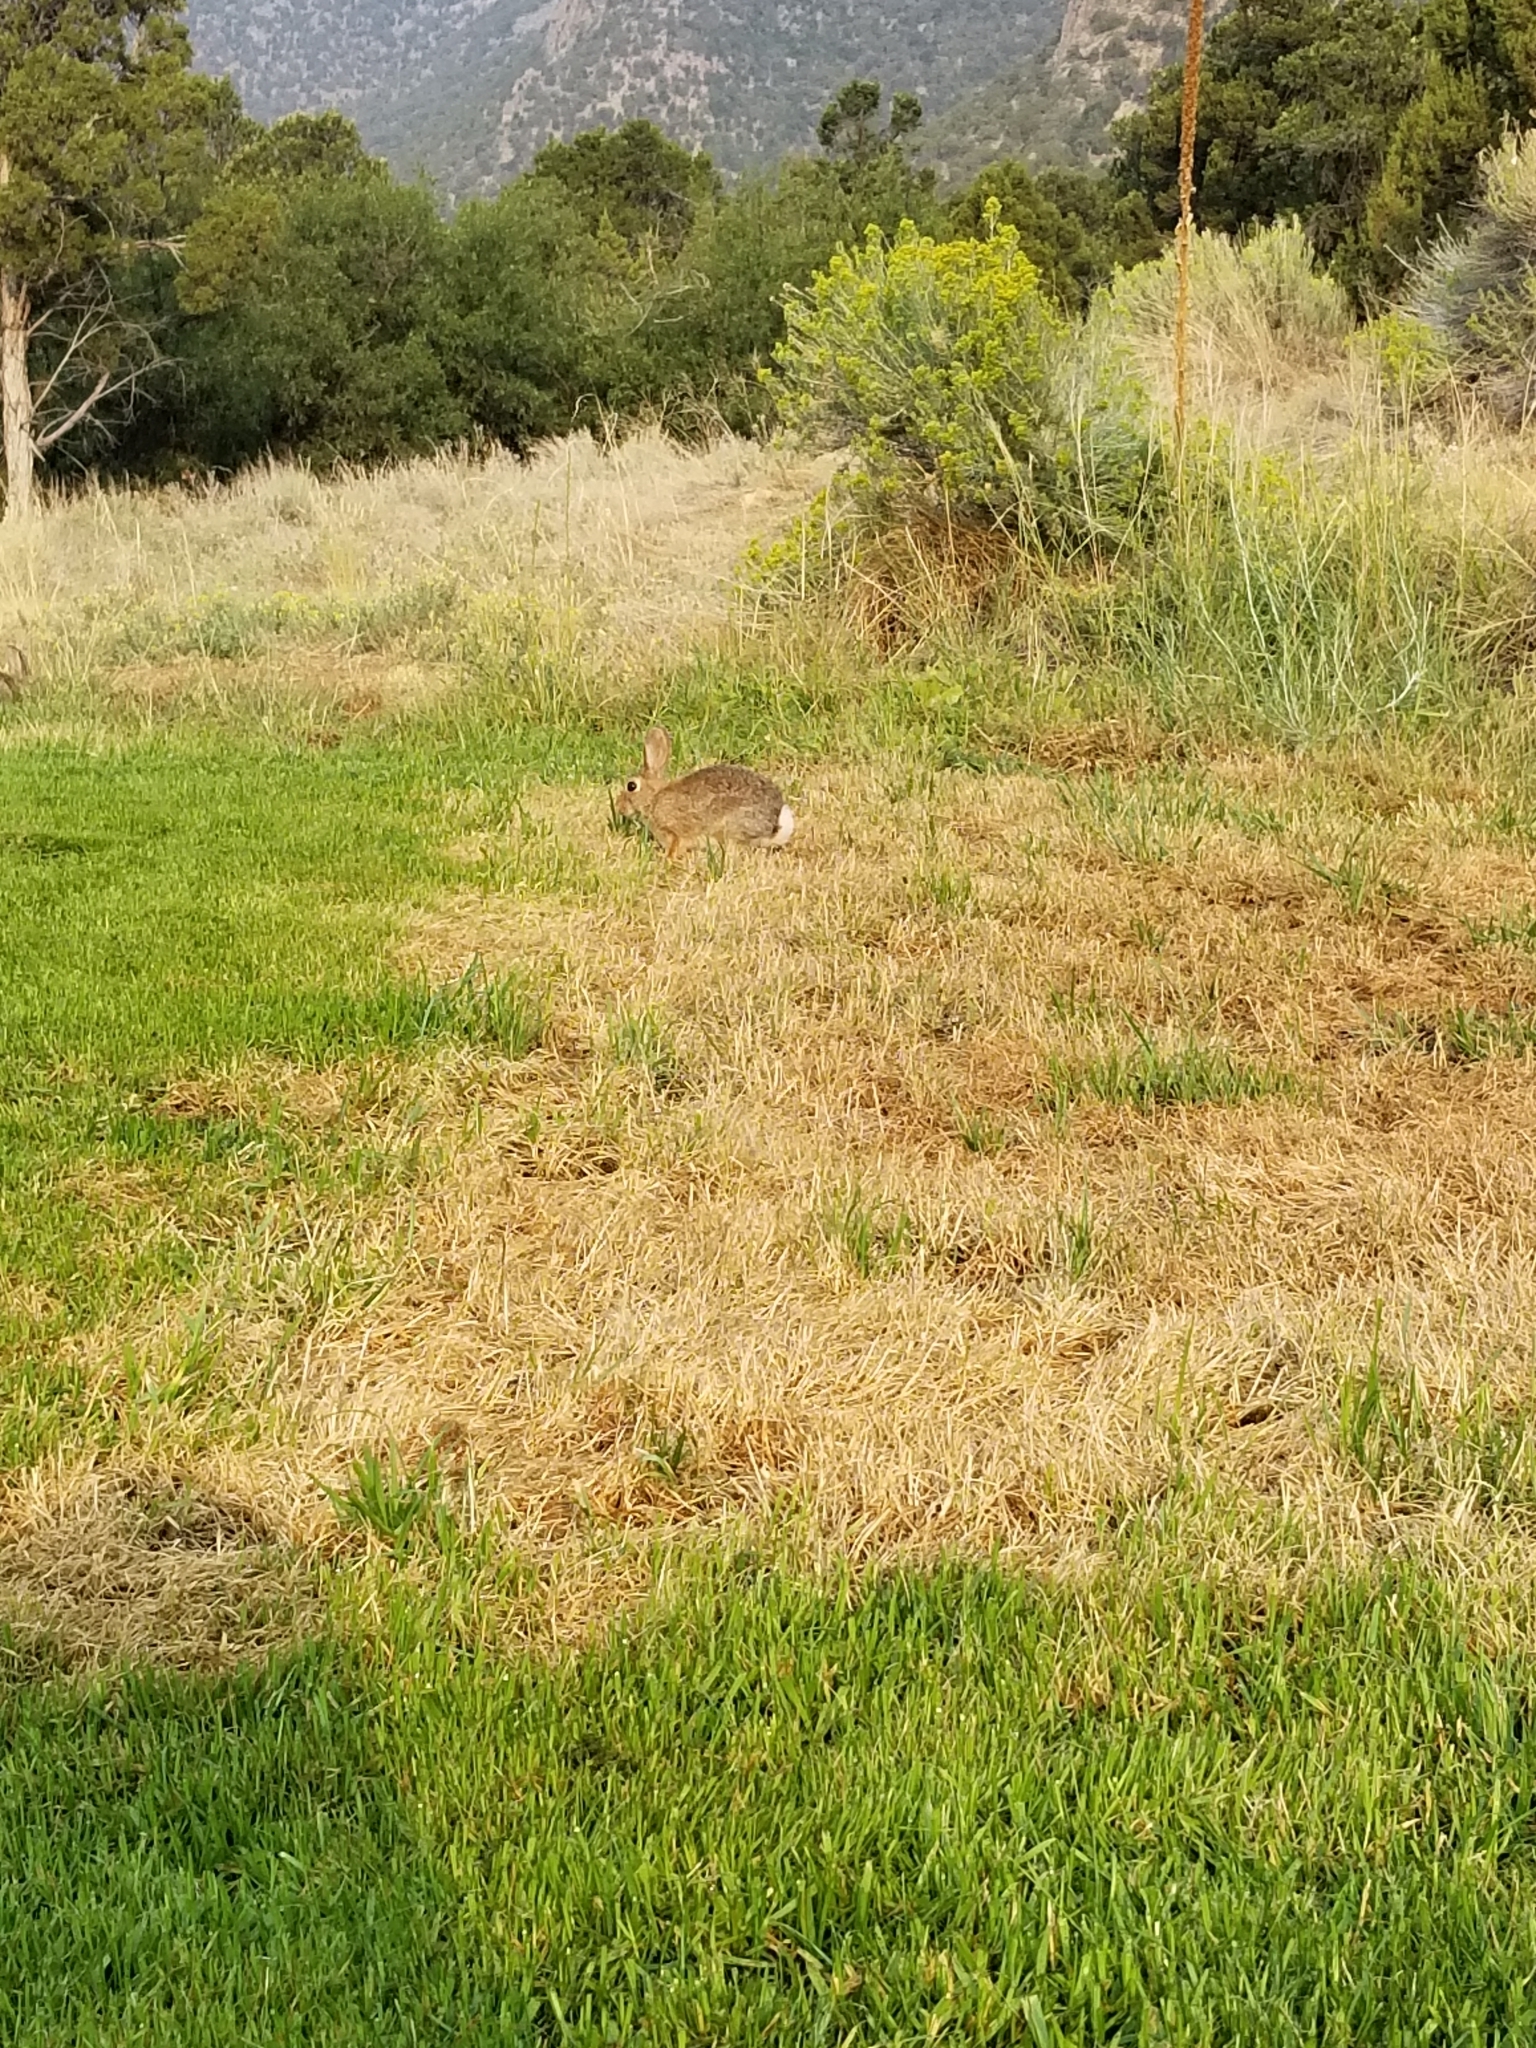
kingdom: Animalia
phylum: Chordata
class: Mammalia
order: Lagomorpha
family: Leporidae
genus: Sylvilagus
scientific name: Sylvilagus audubonii
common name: Desert cottontail
